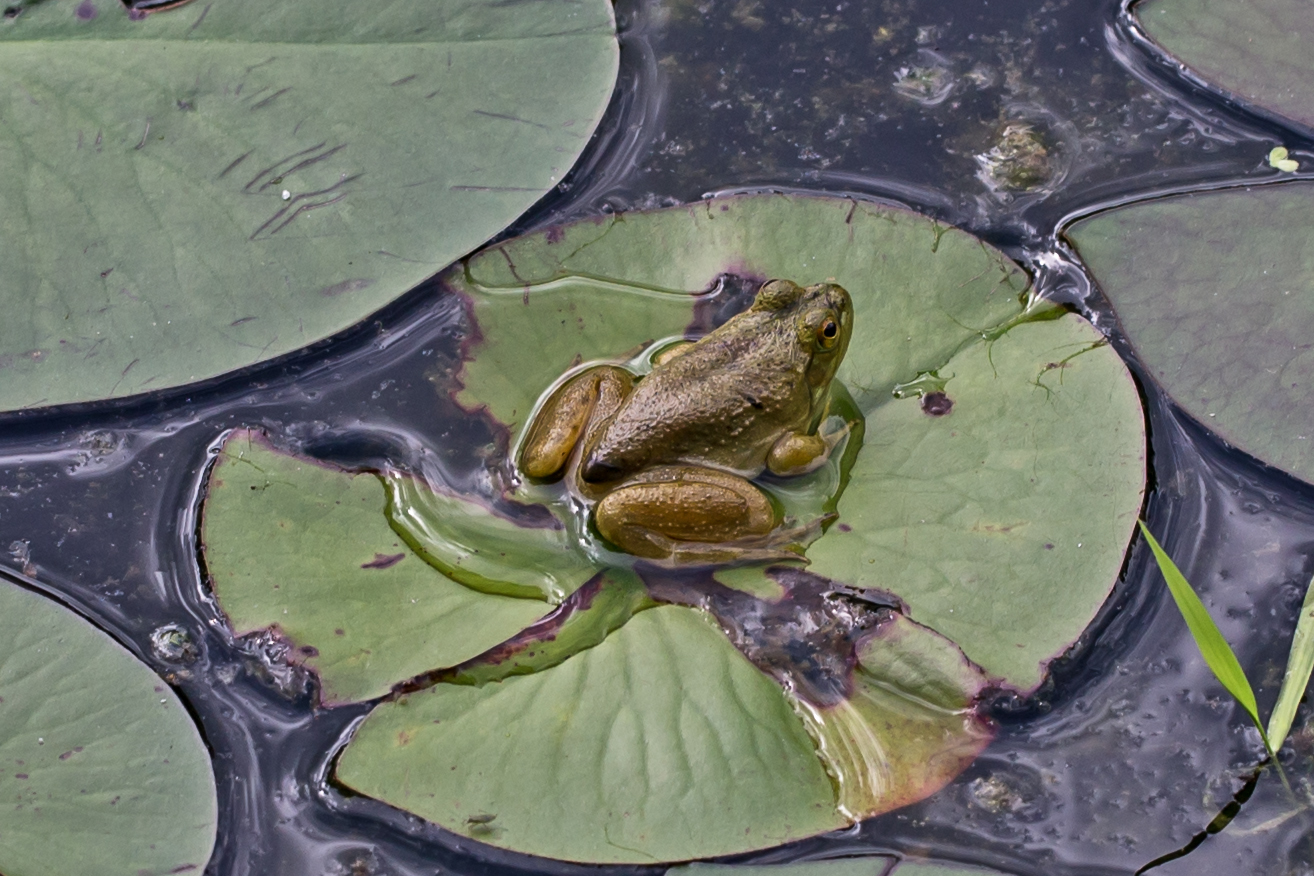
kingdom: Animalia
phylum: Chordata
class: Amphibia
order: Anura
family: Ranidae
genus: Lithobates
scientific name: Lithobates catesbeianus
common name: American bullfrog
